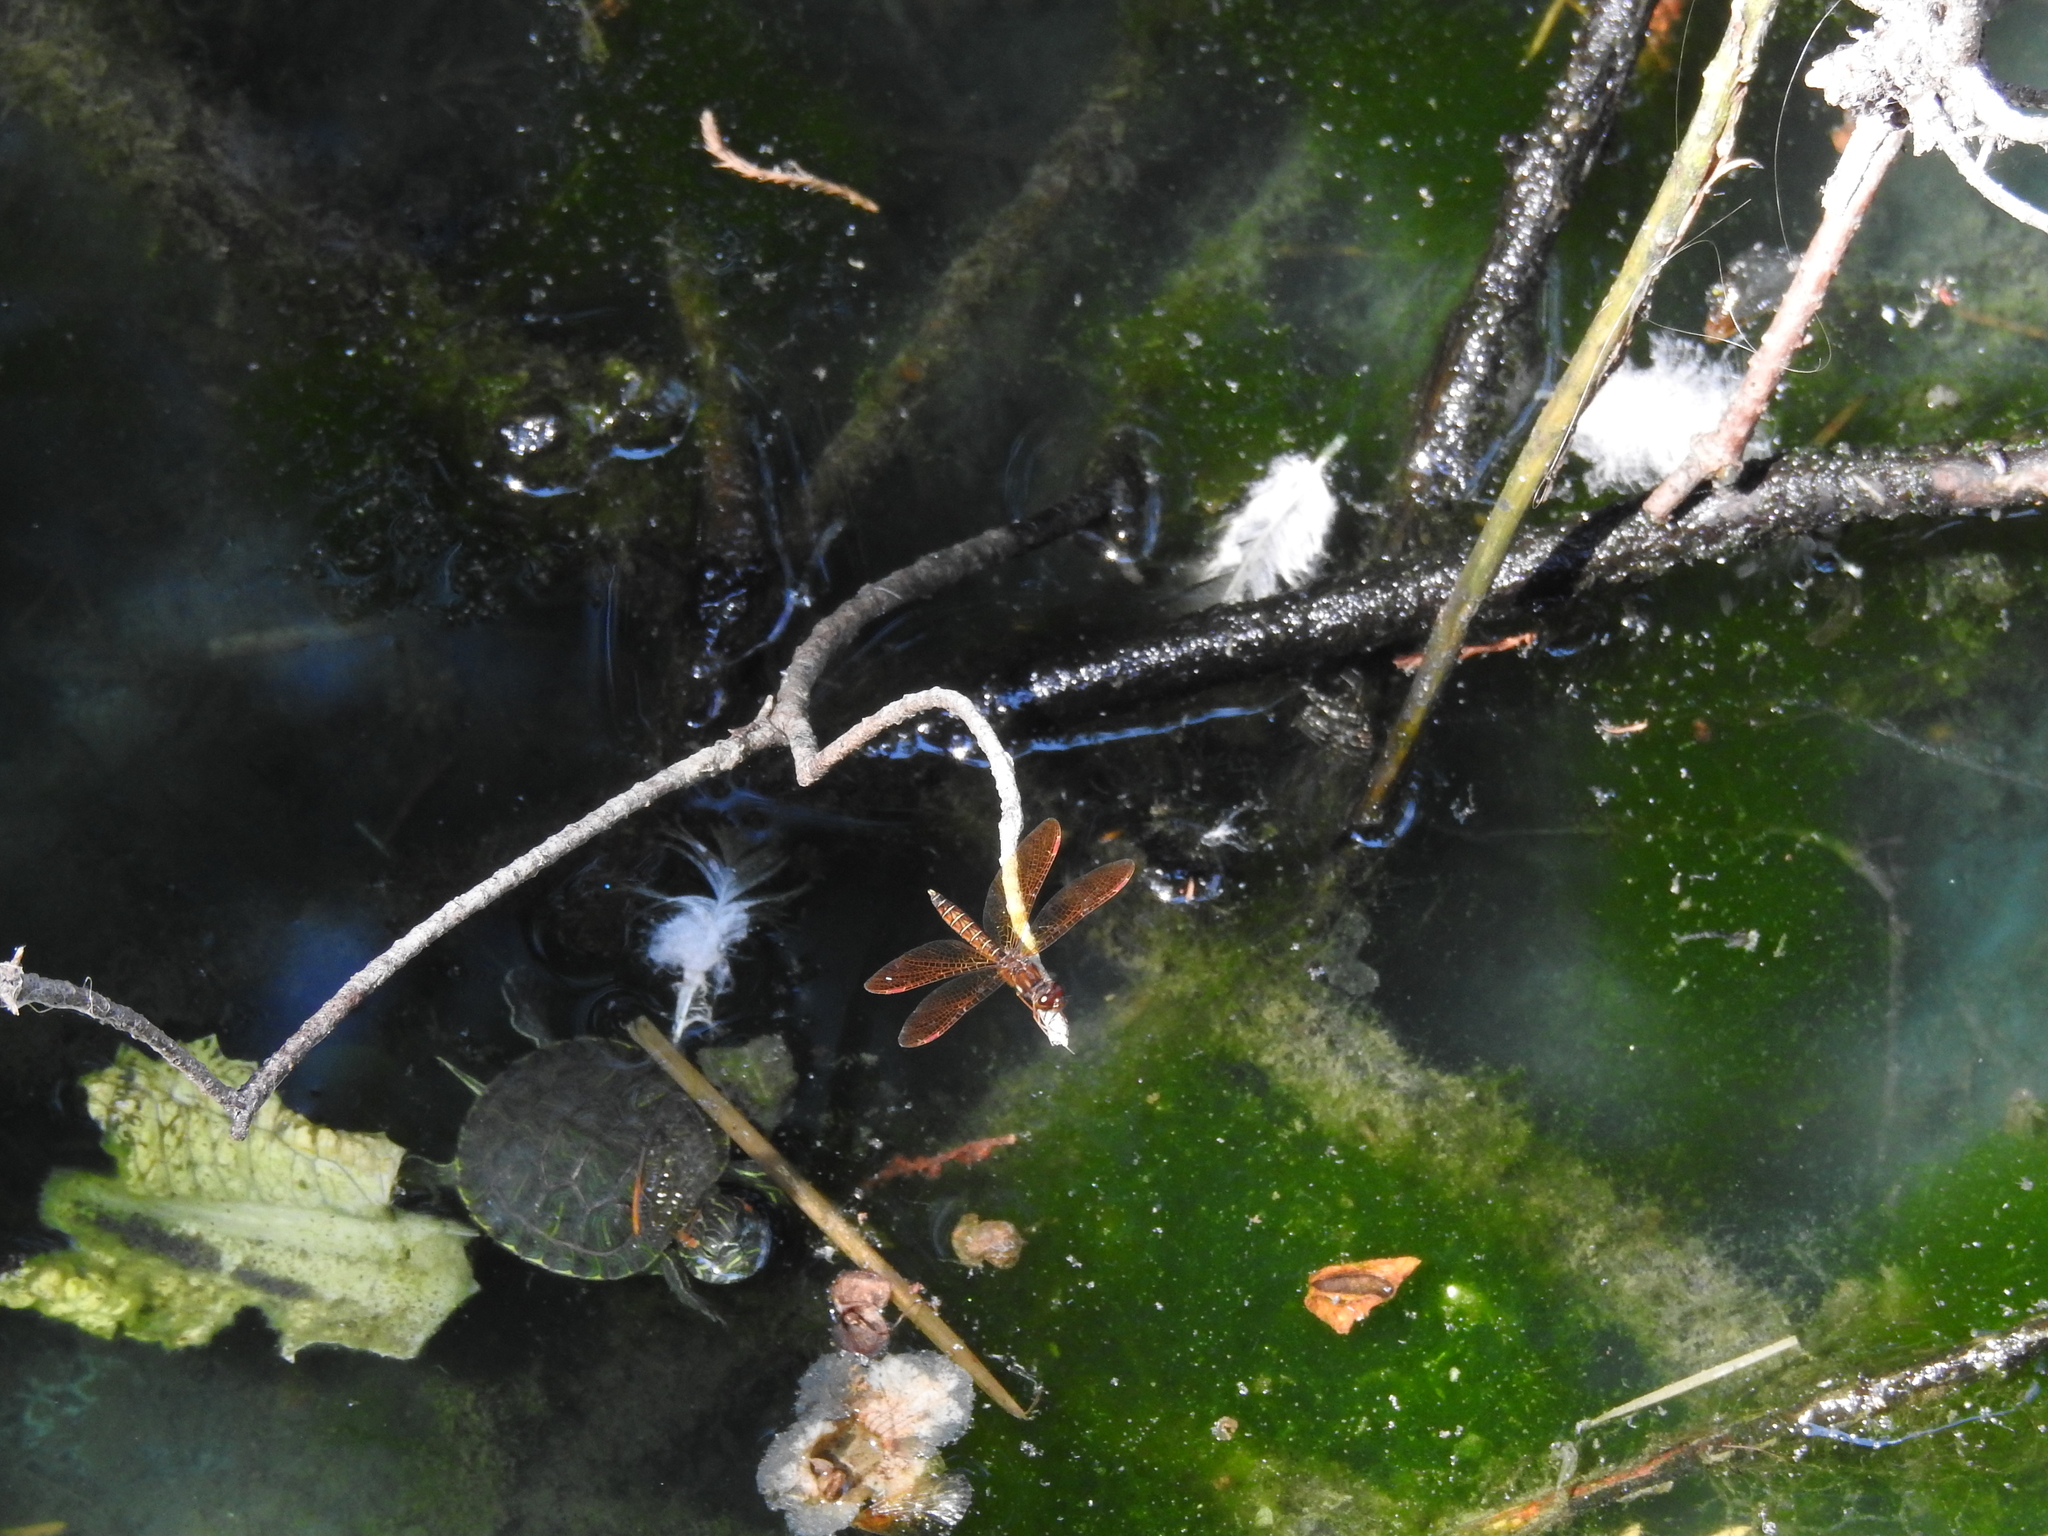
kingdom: Animalia
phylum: Arthropoda
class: Insecta
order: Odonata
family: Libellulidae
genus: Perithemis
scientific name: Perithemis tenera
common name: Eastern amberwing
